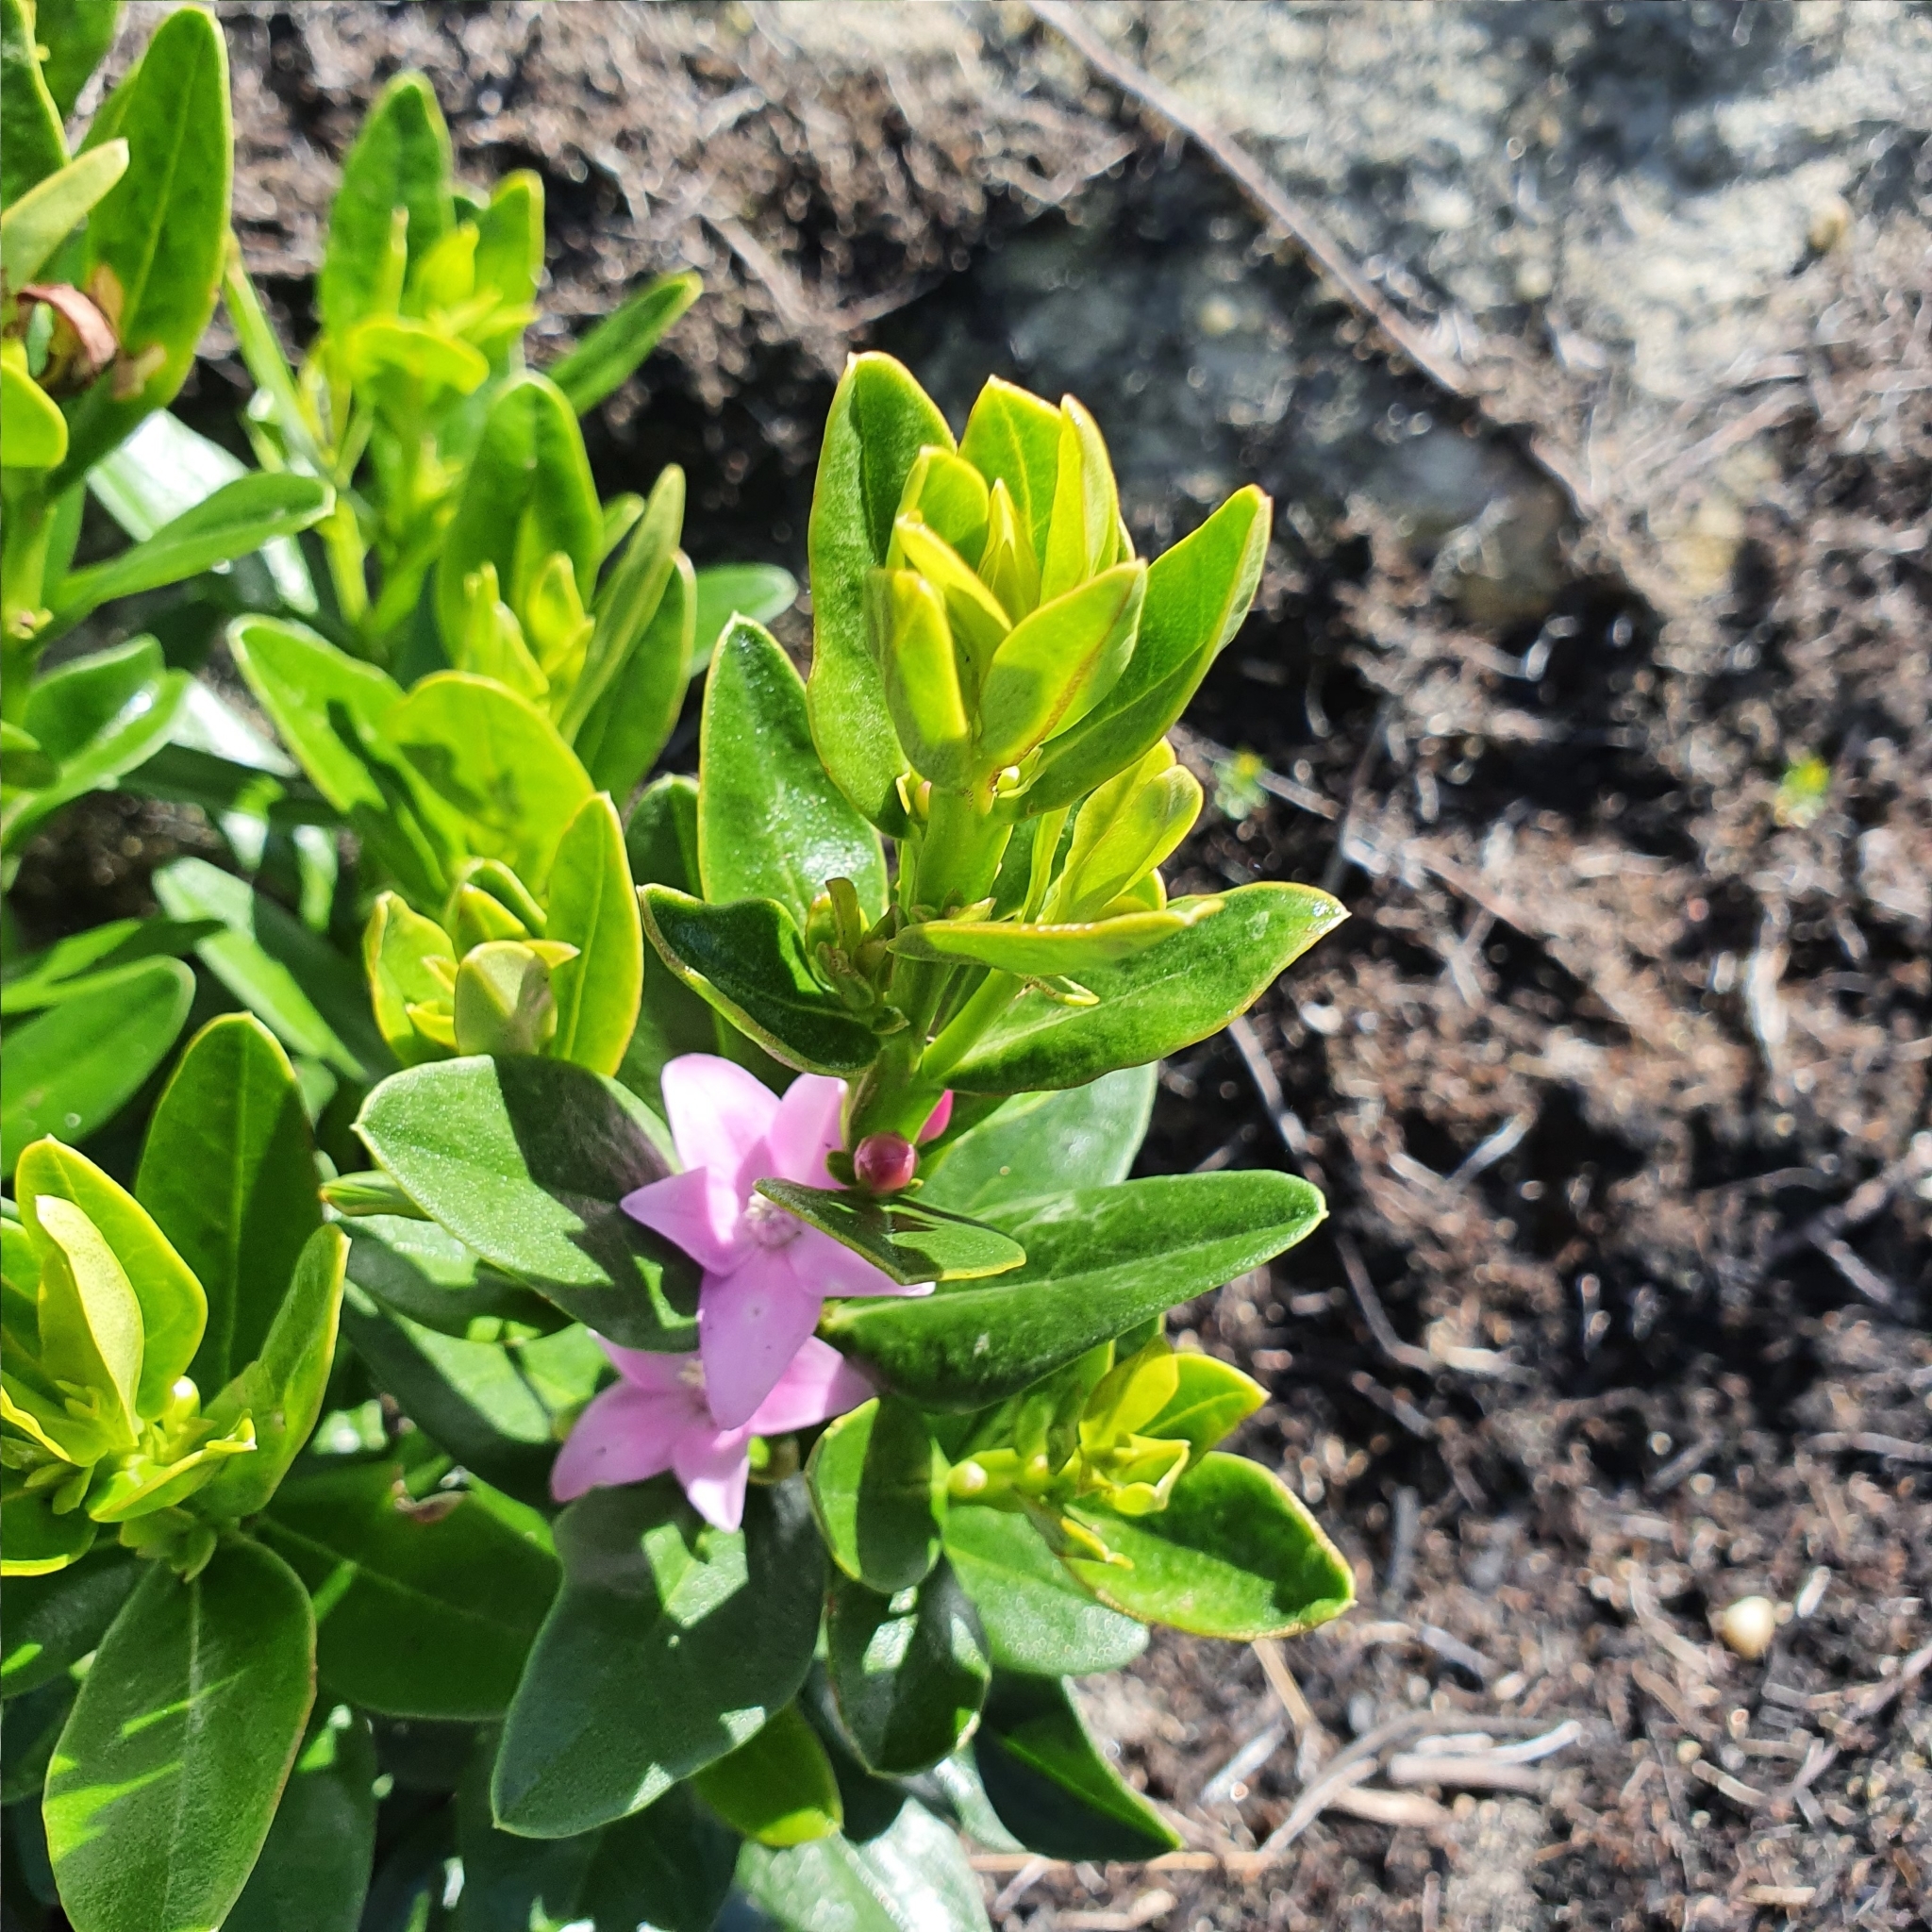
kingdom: Plantae
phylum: Tracheophyta
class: Magnoliopsida
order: Sapindales
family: Rutaceae
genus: Crowea
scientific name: Crowea saligna
